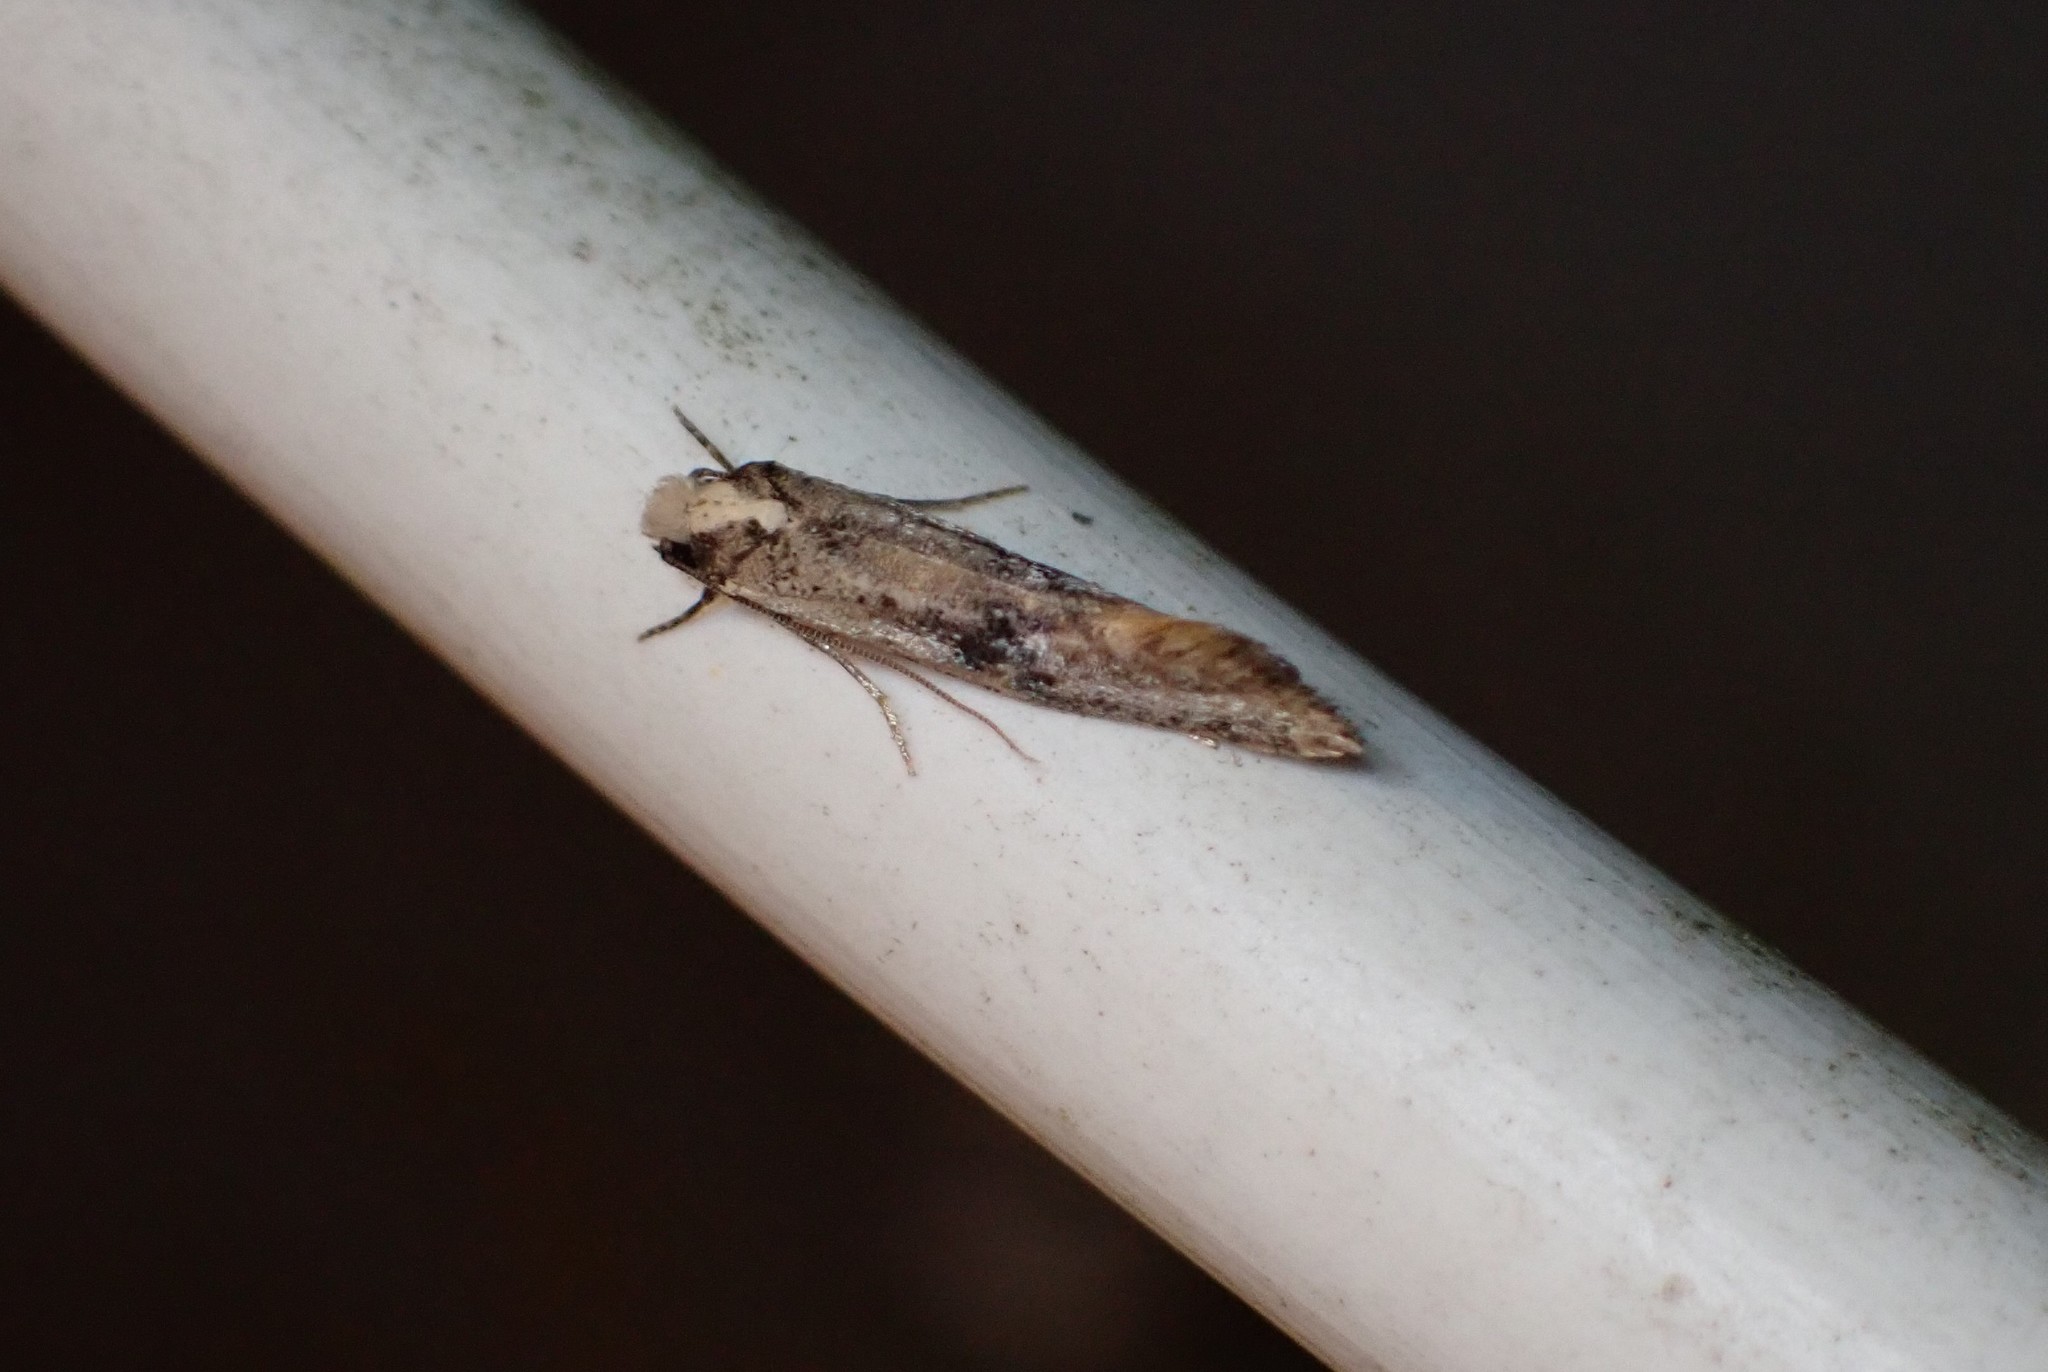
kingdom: Animalia
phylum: Arthropoda
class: Insecta
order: Lepidoptera
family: Tineidae
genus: Monopis
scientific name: Monopis argillacea
